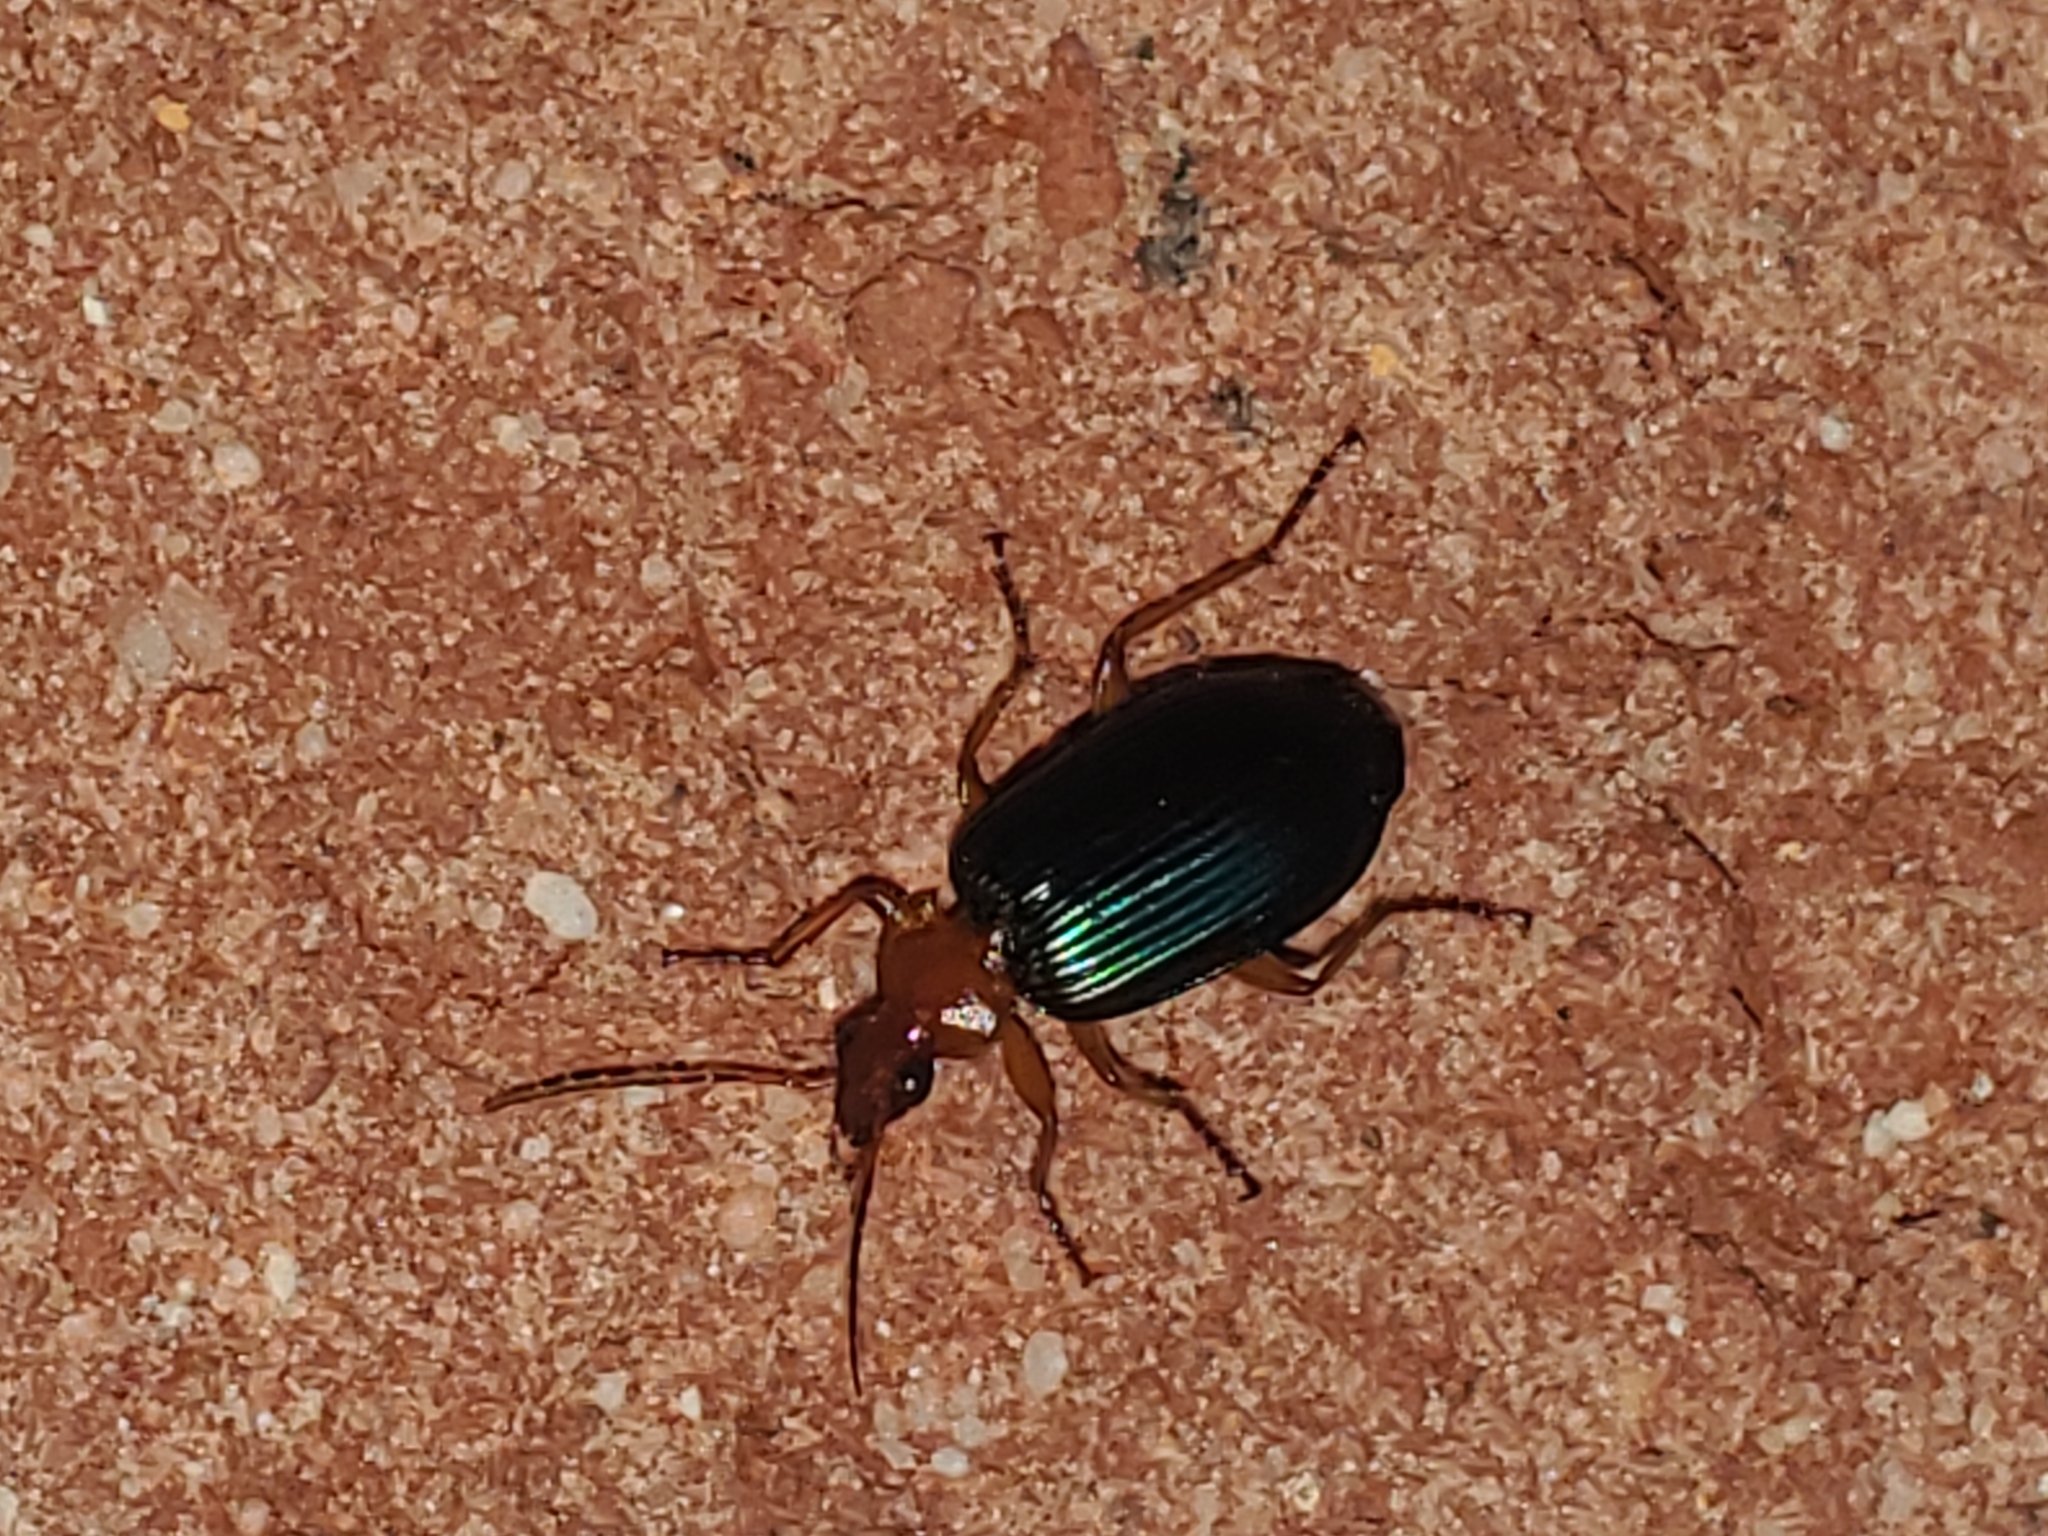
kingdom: Animalia
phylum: Arthropoda
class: Insecta
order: Coleoptera
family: Carabidae
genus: Lebia
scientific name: Lebia grandis
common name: Large foliage ground beetle
